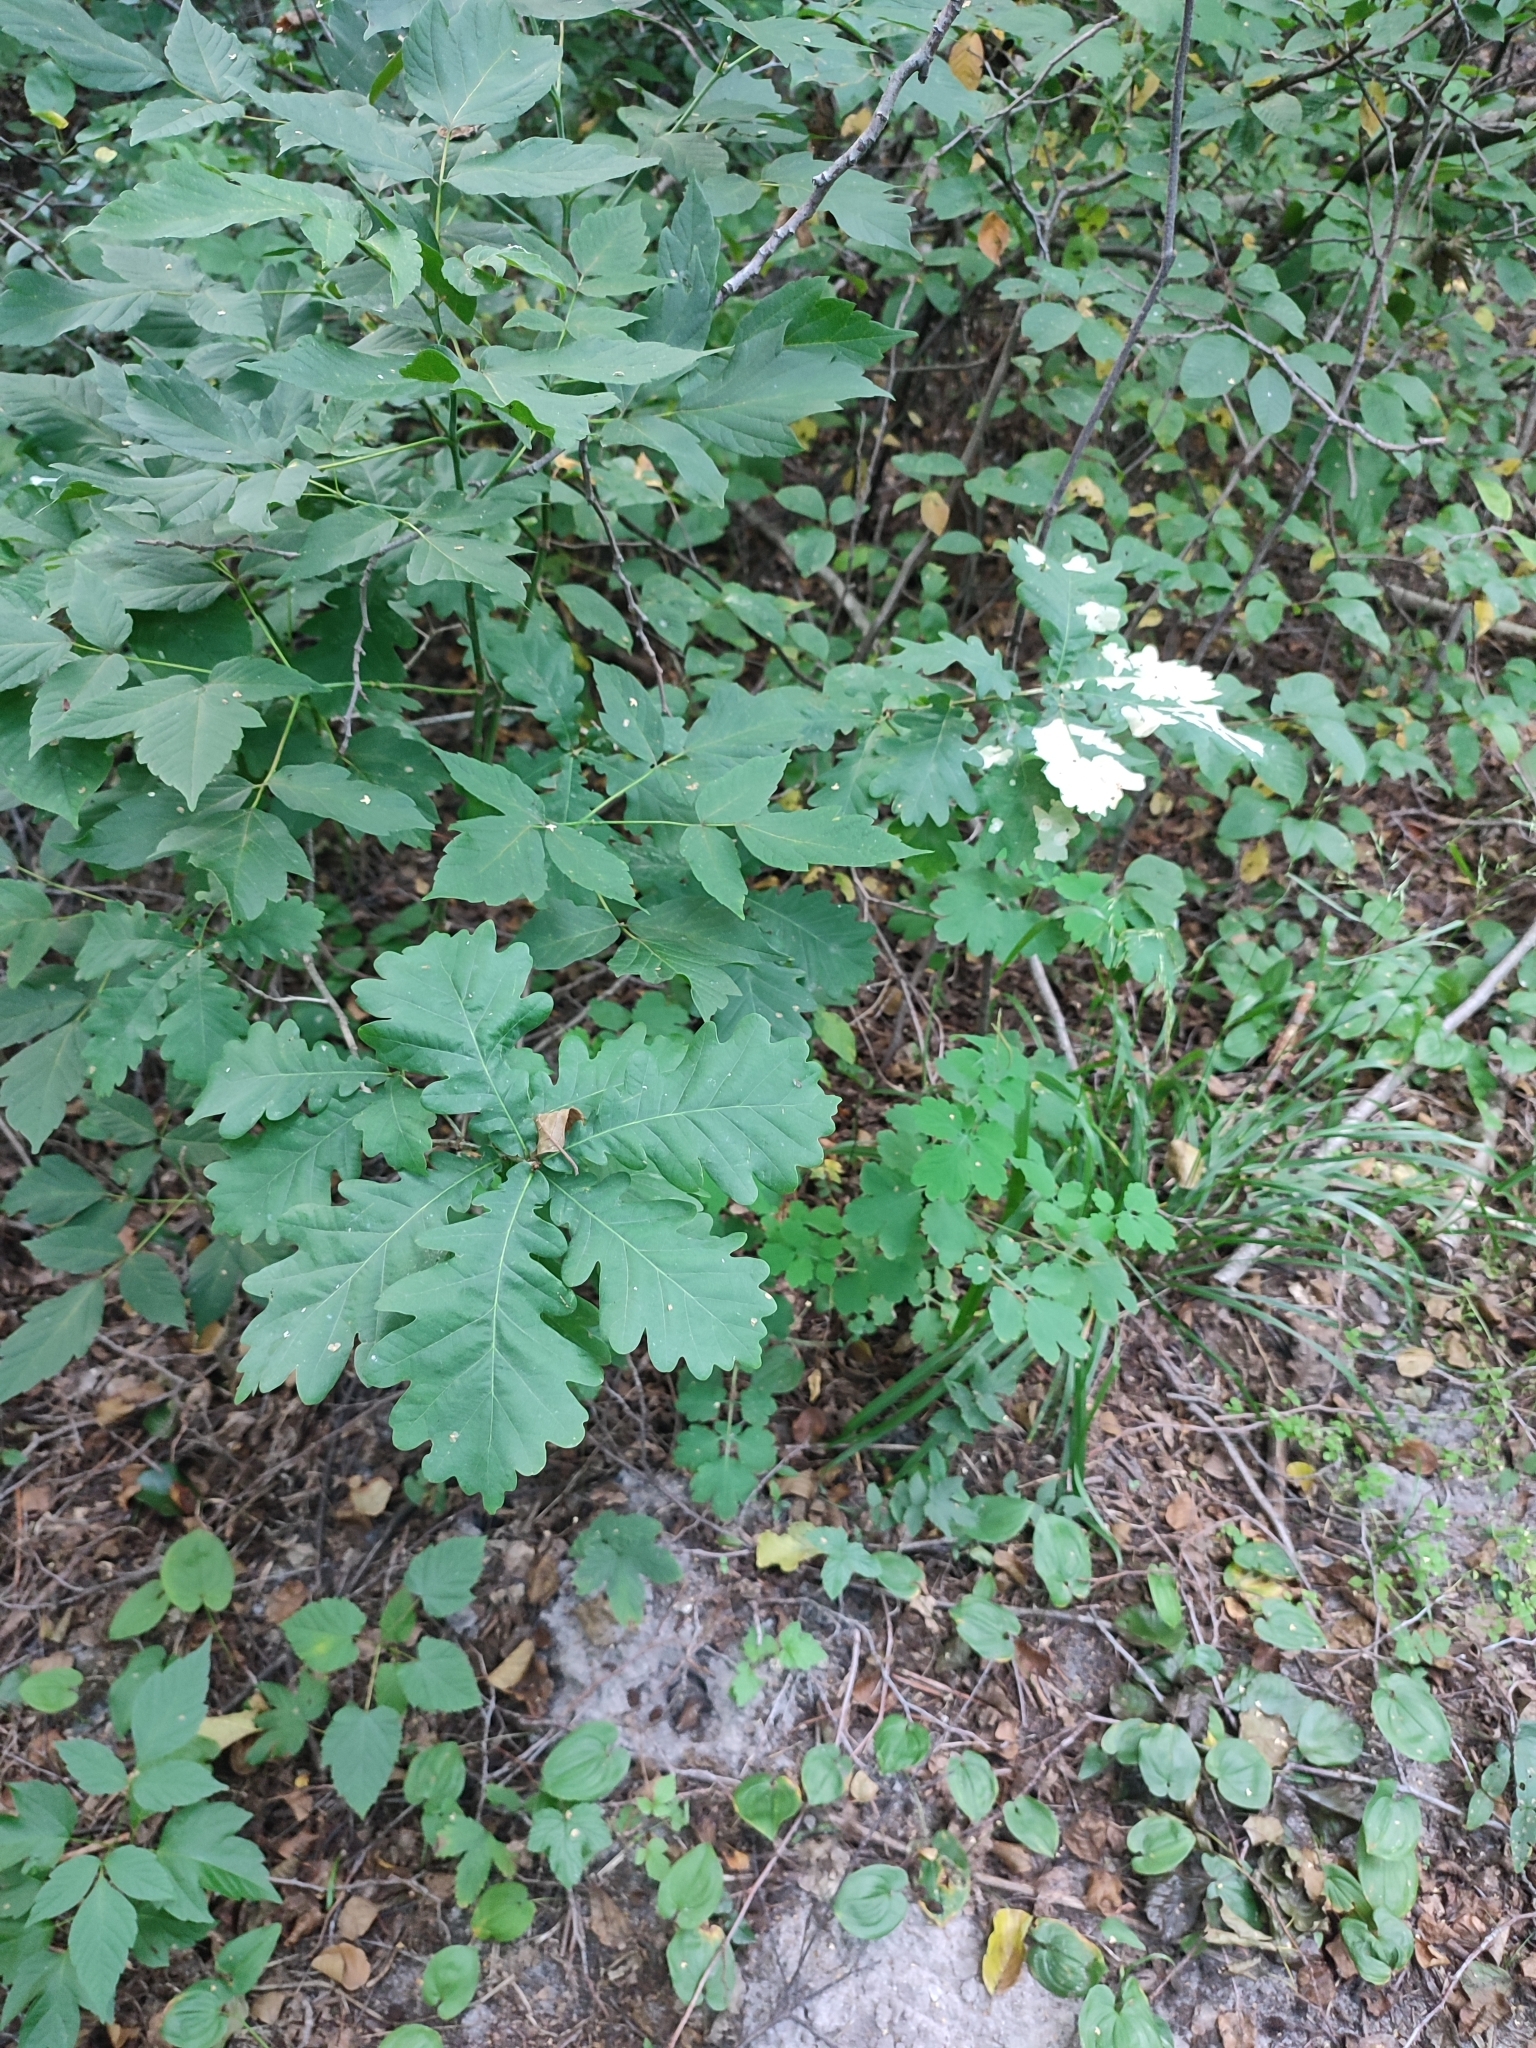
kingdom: Plantae
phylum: Tracheophyta
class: Magnoliopsida
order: Fagales
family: Fagaceae
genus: Quercus
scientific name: Quercus robur
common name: Pedunculate oak
